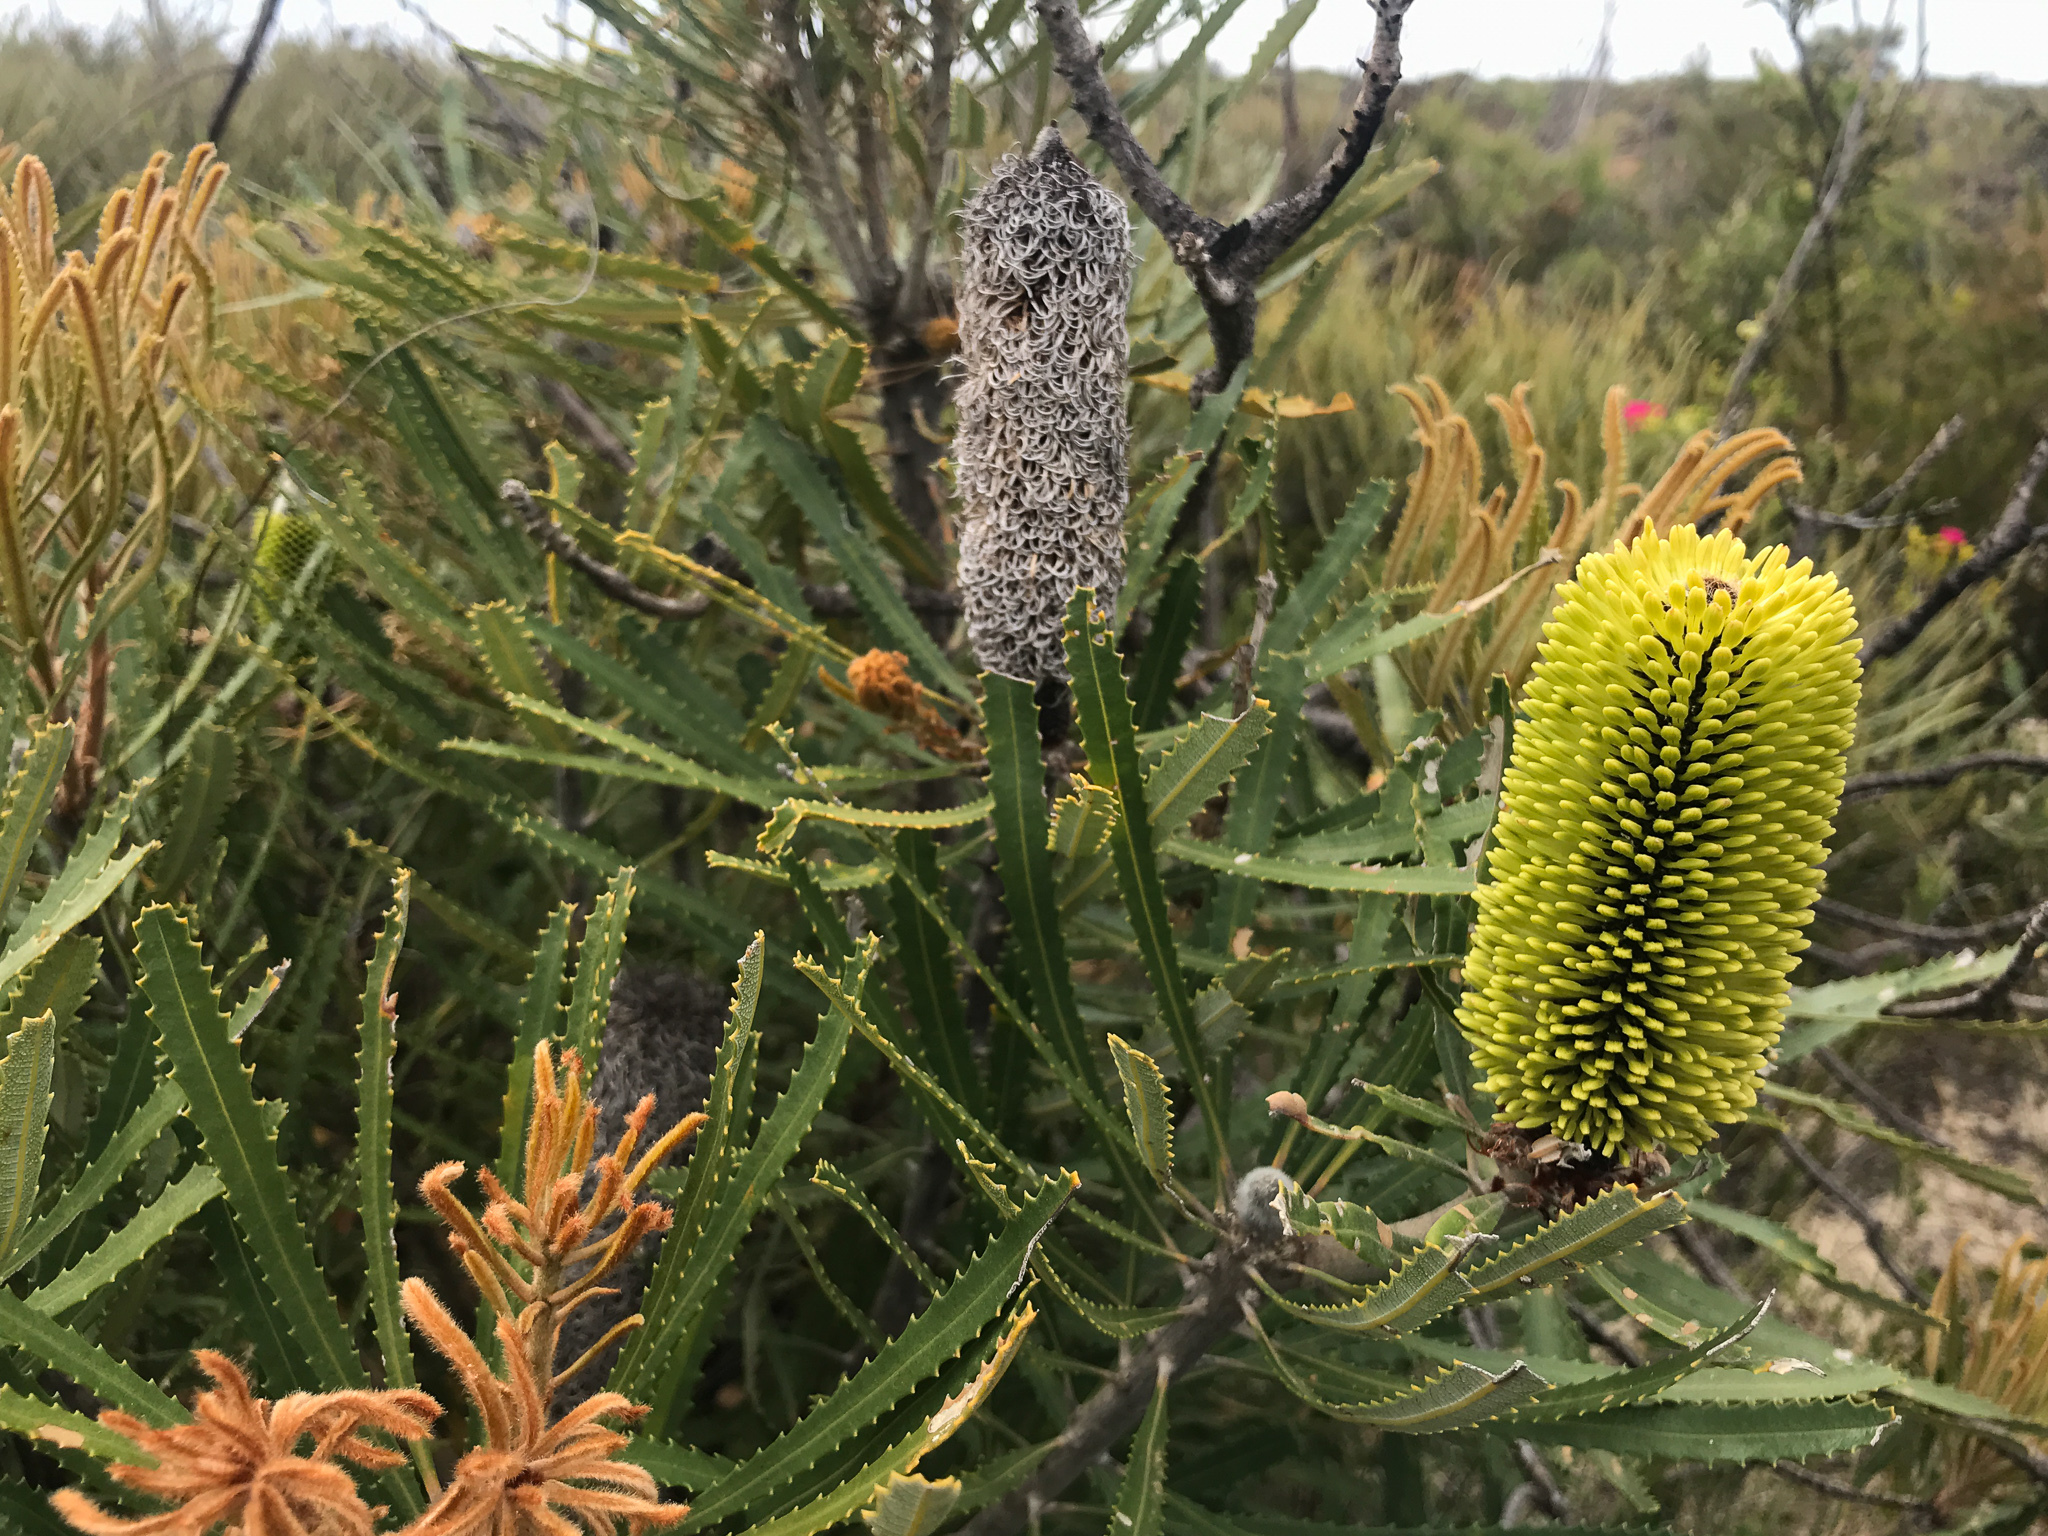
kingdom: Plantae
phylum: Tracheophyta
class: Magnoliopsida
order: Proteales
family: Proteaceae
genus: Banksia
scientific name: Banksia attenuata
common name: Coast banksia
